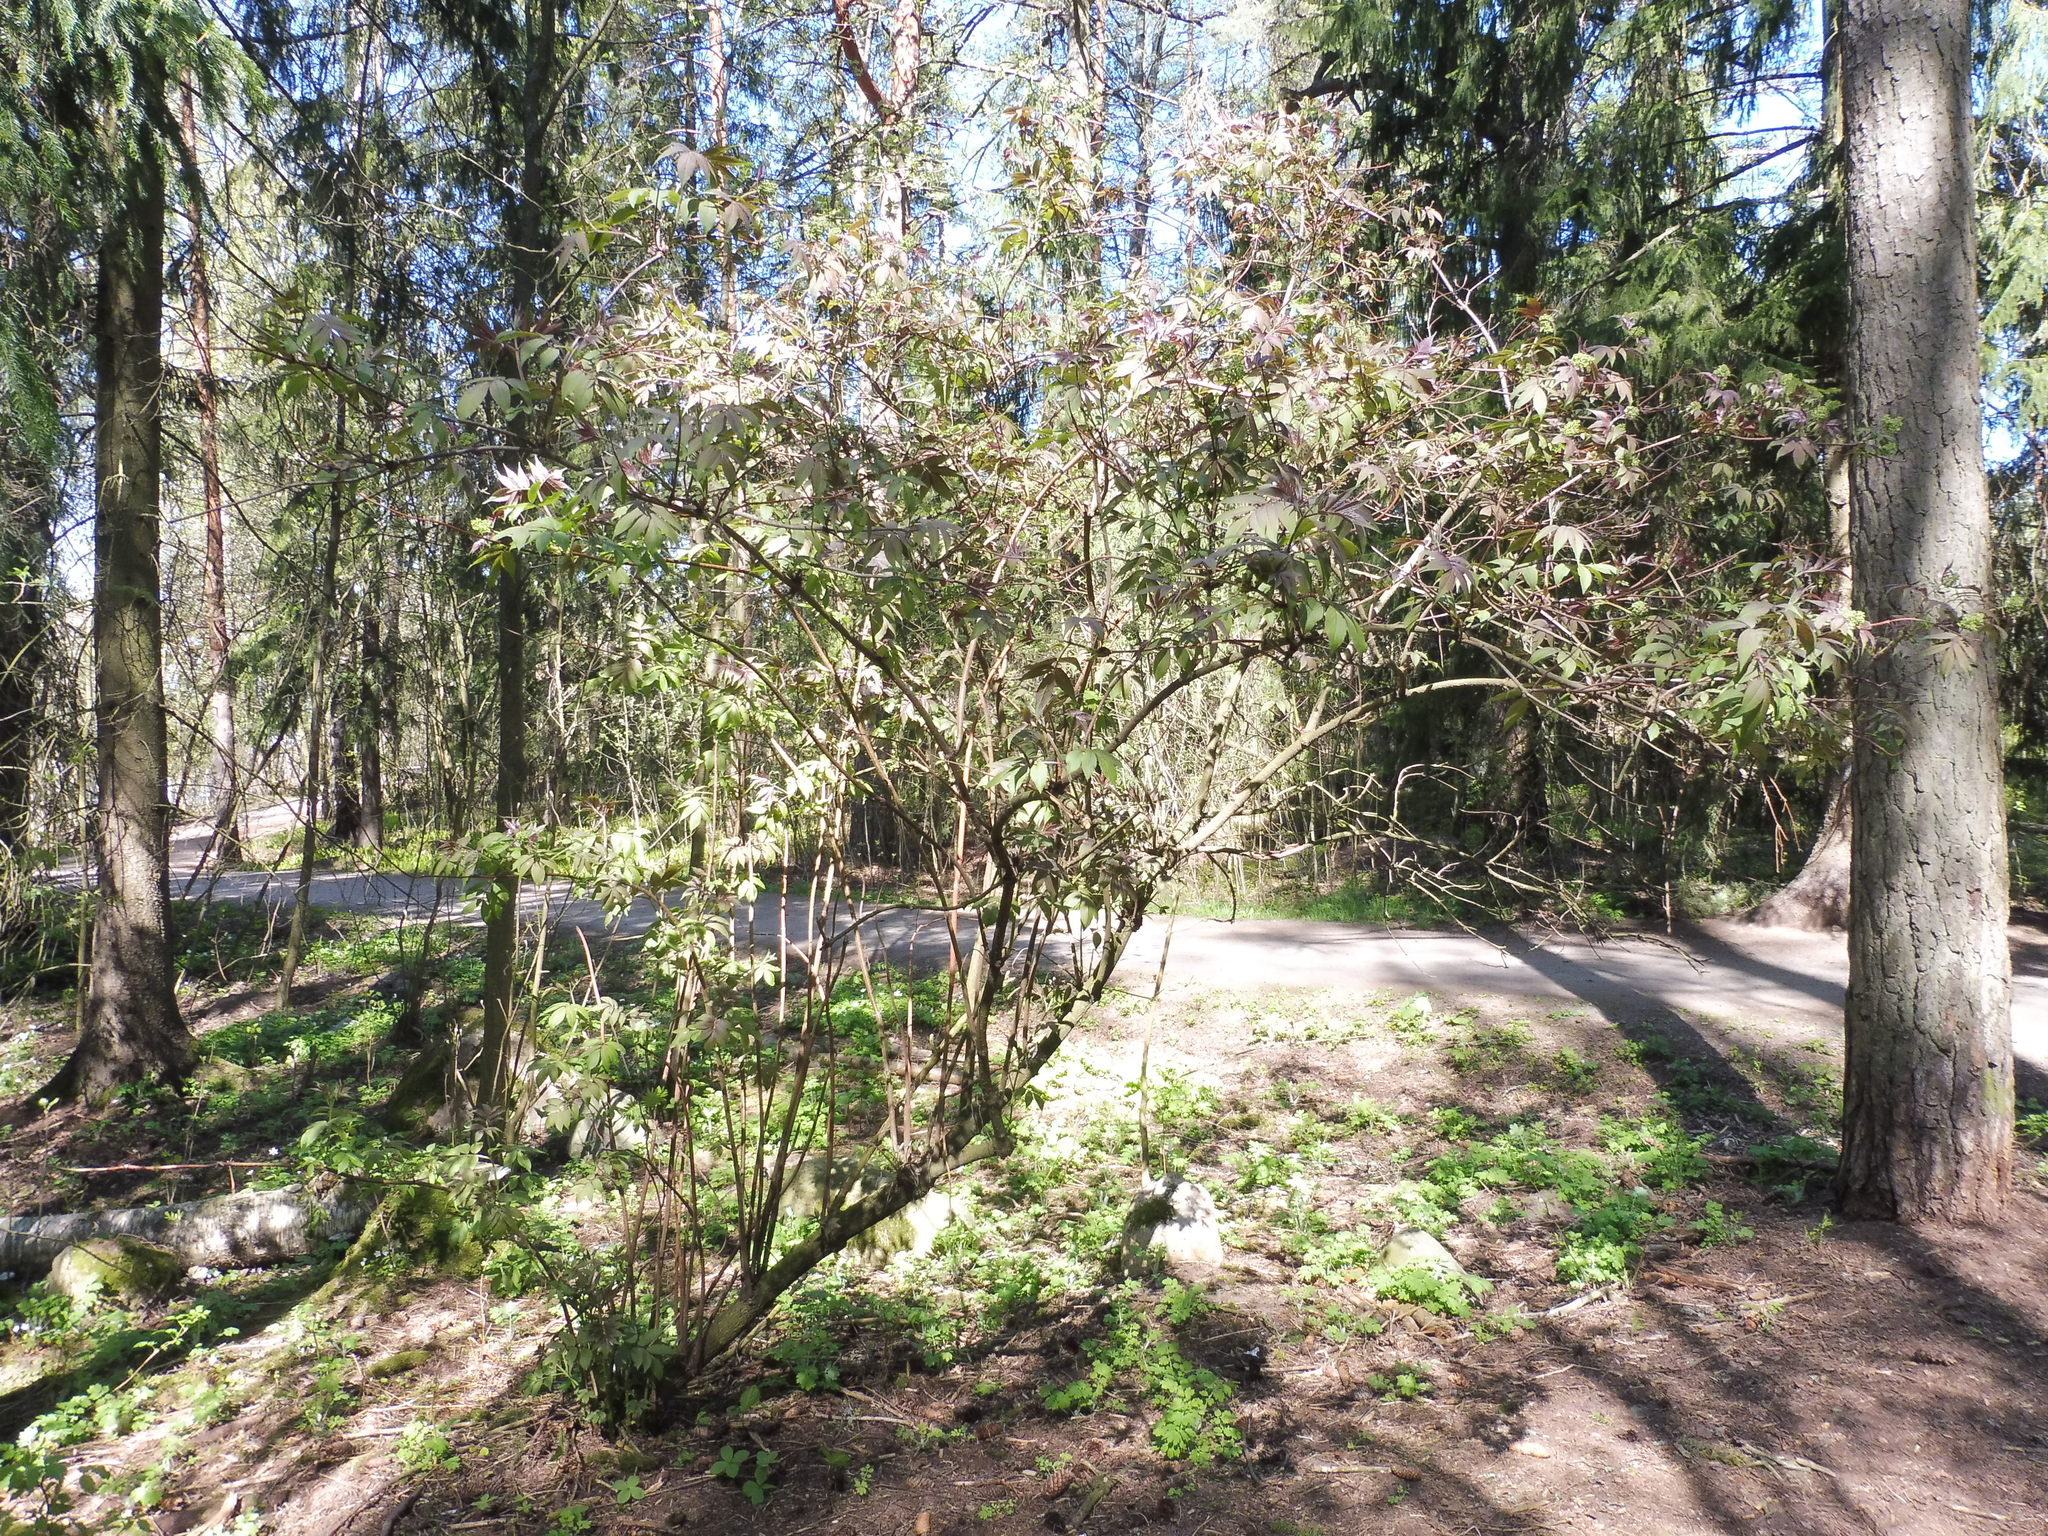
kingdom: Plantae
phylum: Tracheophyta
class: Magnoliopsida
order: Dipsacales
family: Viburnaceae
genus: Sambucus
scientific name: Sambucus racemosa
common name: Red-berried elder
